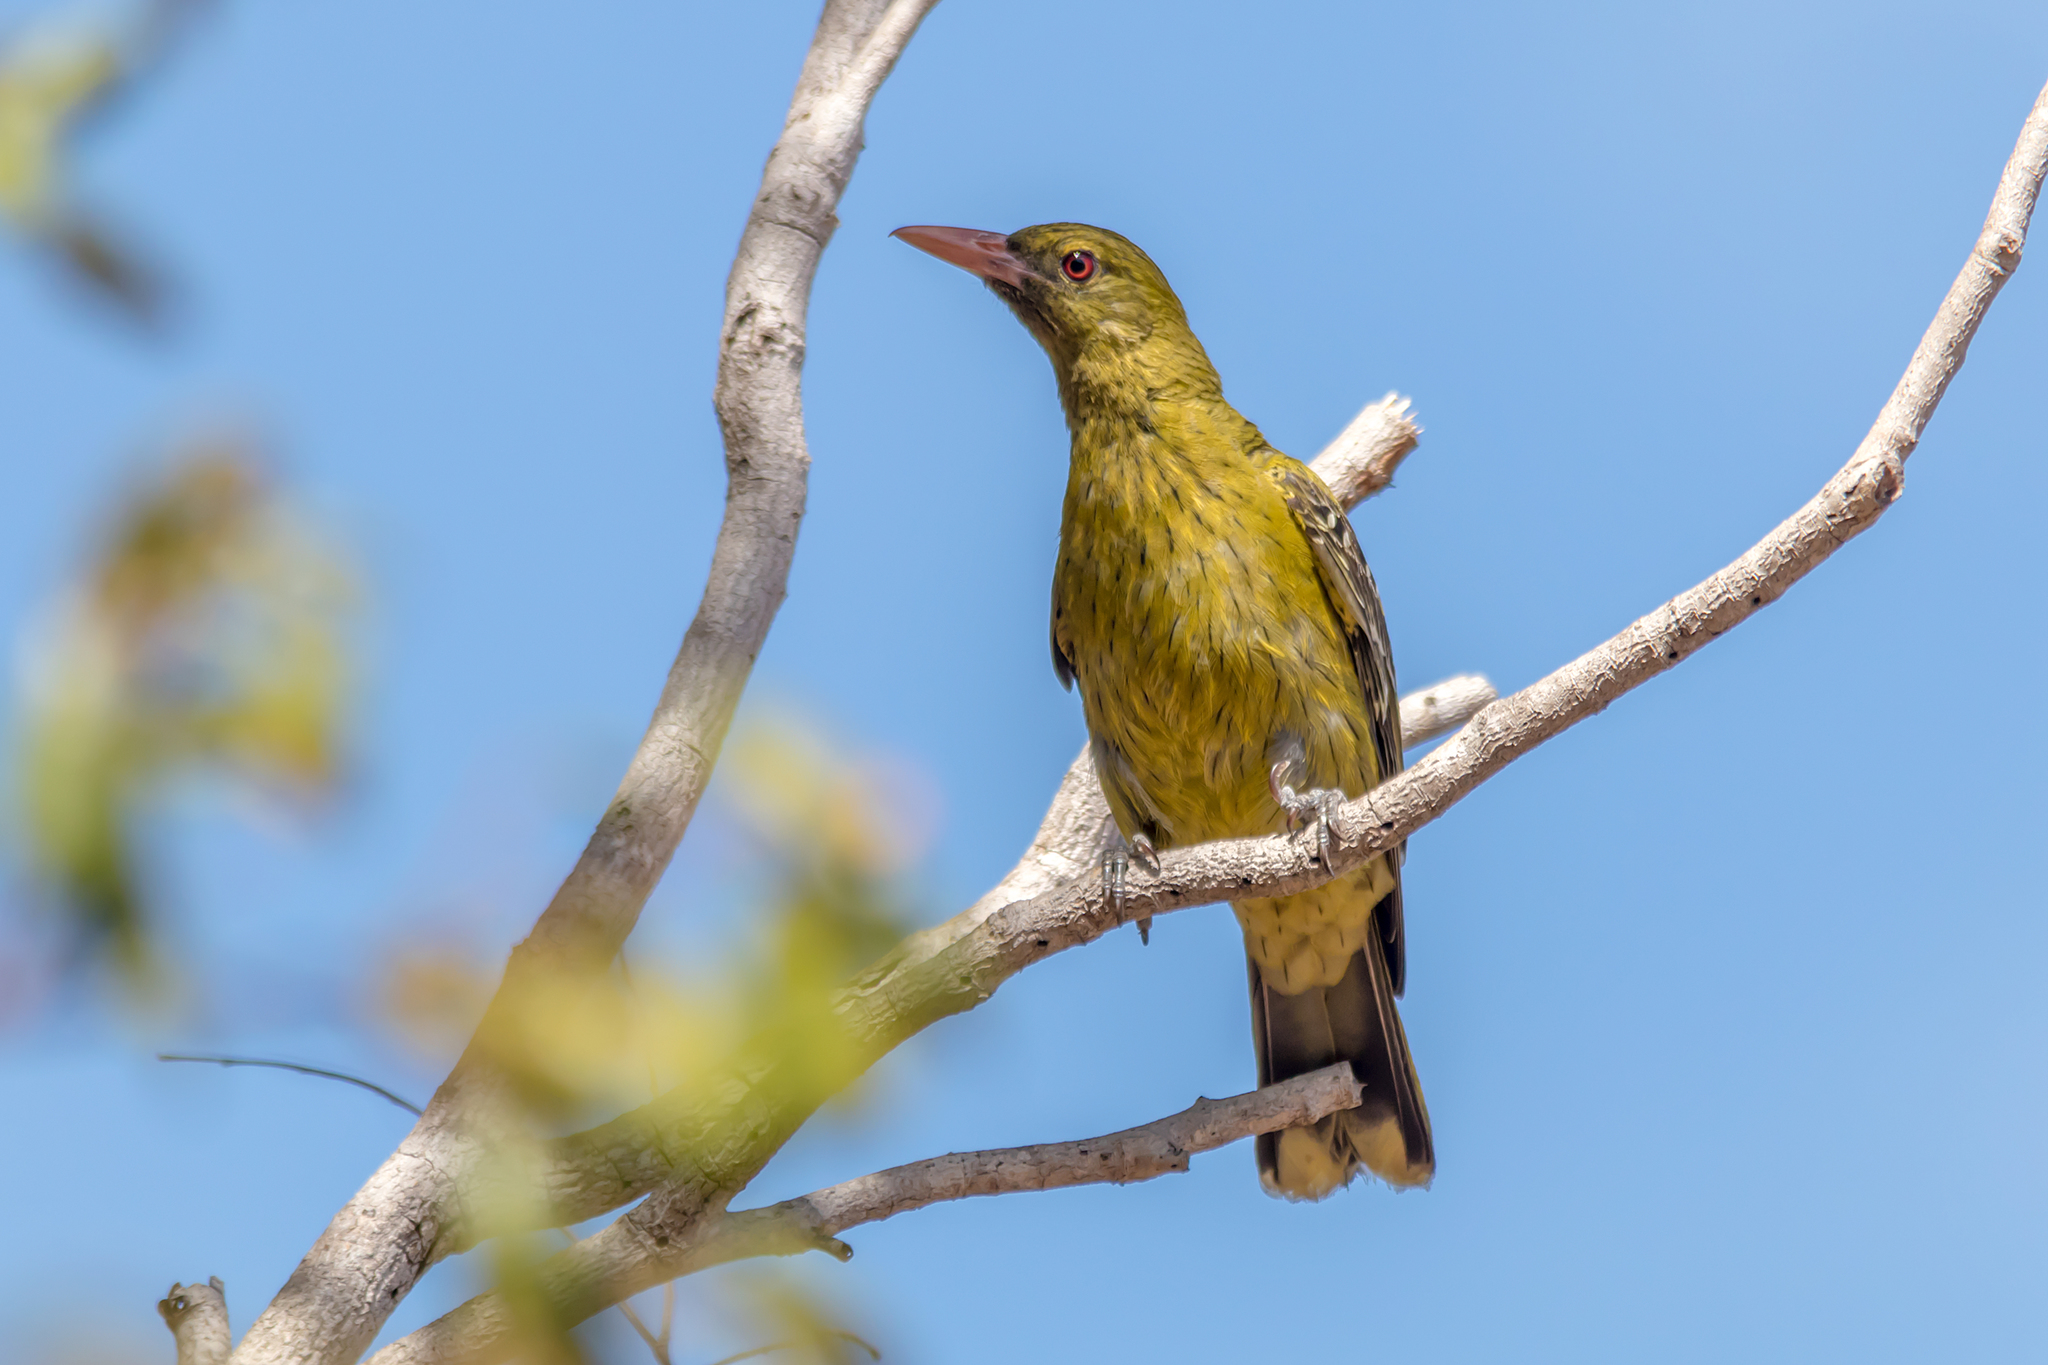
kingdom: Animalia
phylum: Chordata
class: Aves
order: Passeriformes
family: Oriolidae
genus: Oriolus
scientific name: Oriolus flavocinctus
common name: Green oriole
